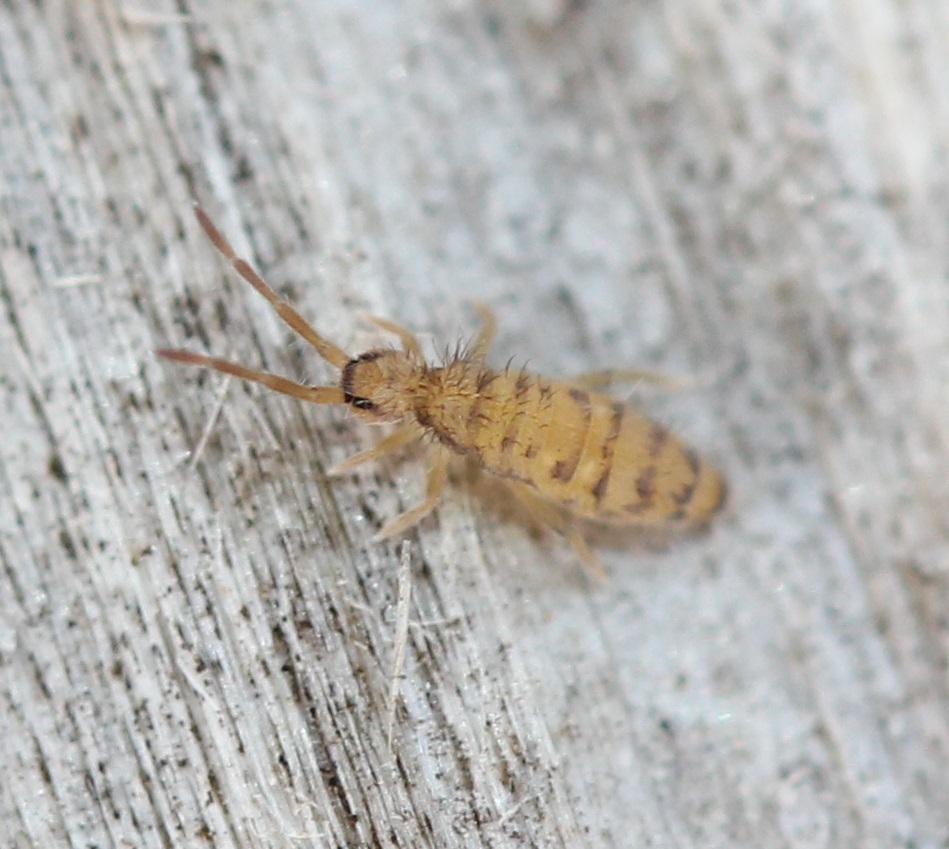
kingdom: Animalia
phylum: Arthropoda
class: Collembola
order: Entomobryomorpha
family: Entomobryidae
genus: Entomobrya
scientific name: Entomobrya multifasciata
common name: Springtail
